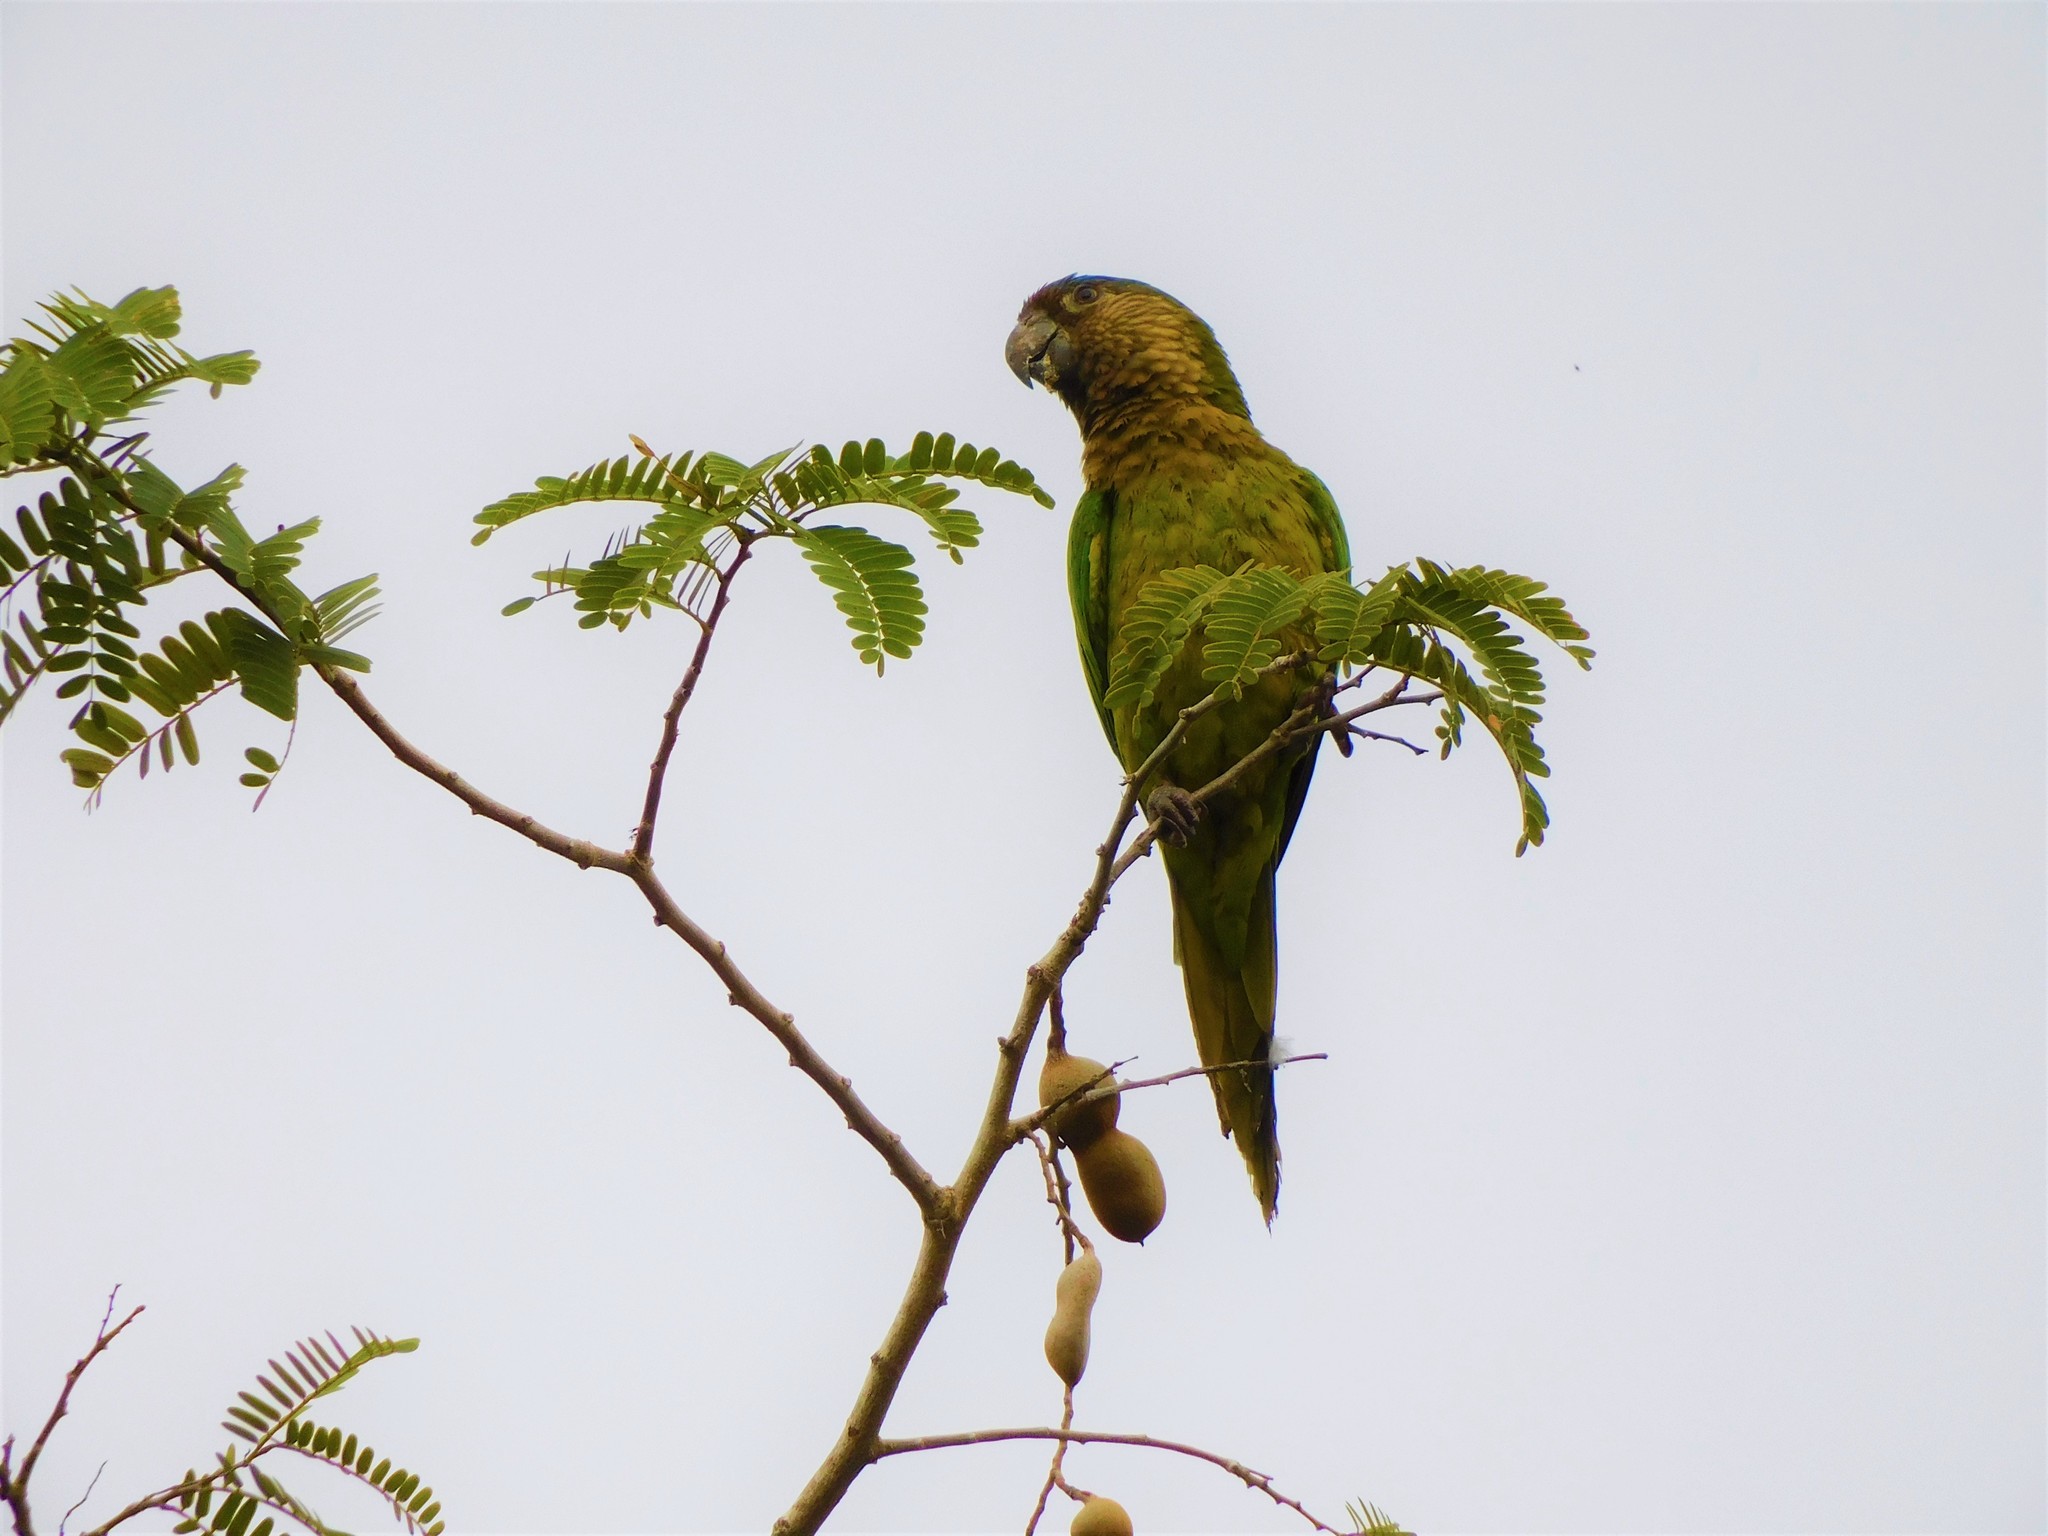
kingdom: Animalia
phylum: Chordata
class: Aves
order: Psittaciformes
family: Psittacidae
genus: Aratinga
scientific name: Aratinga pertinax
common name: Brown-throated parakeet
